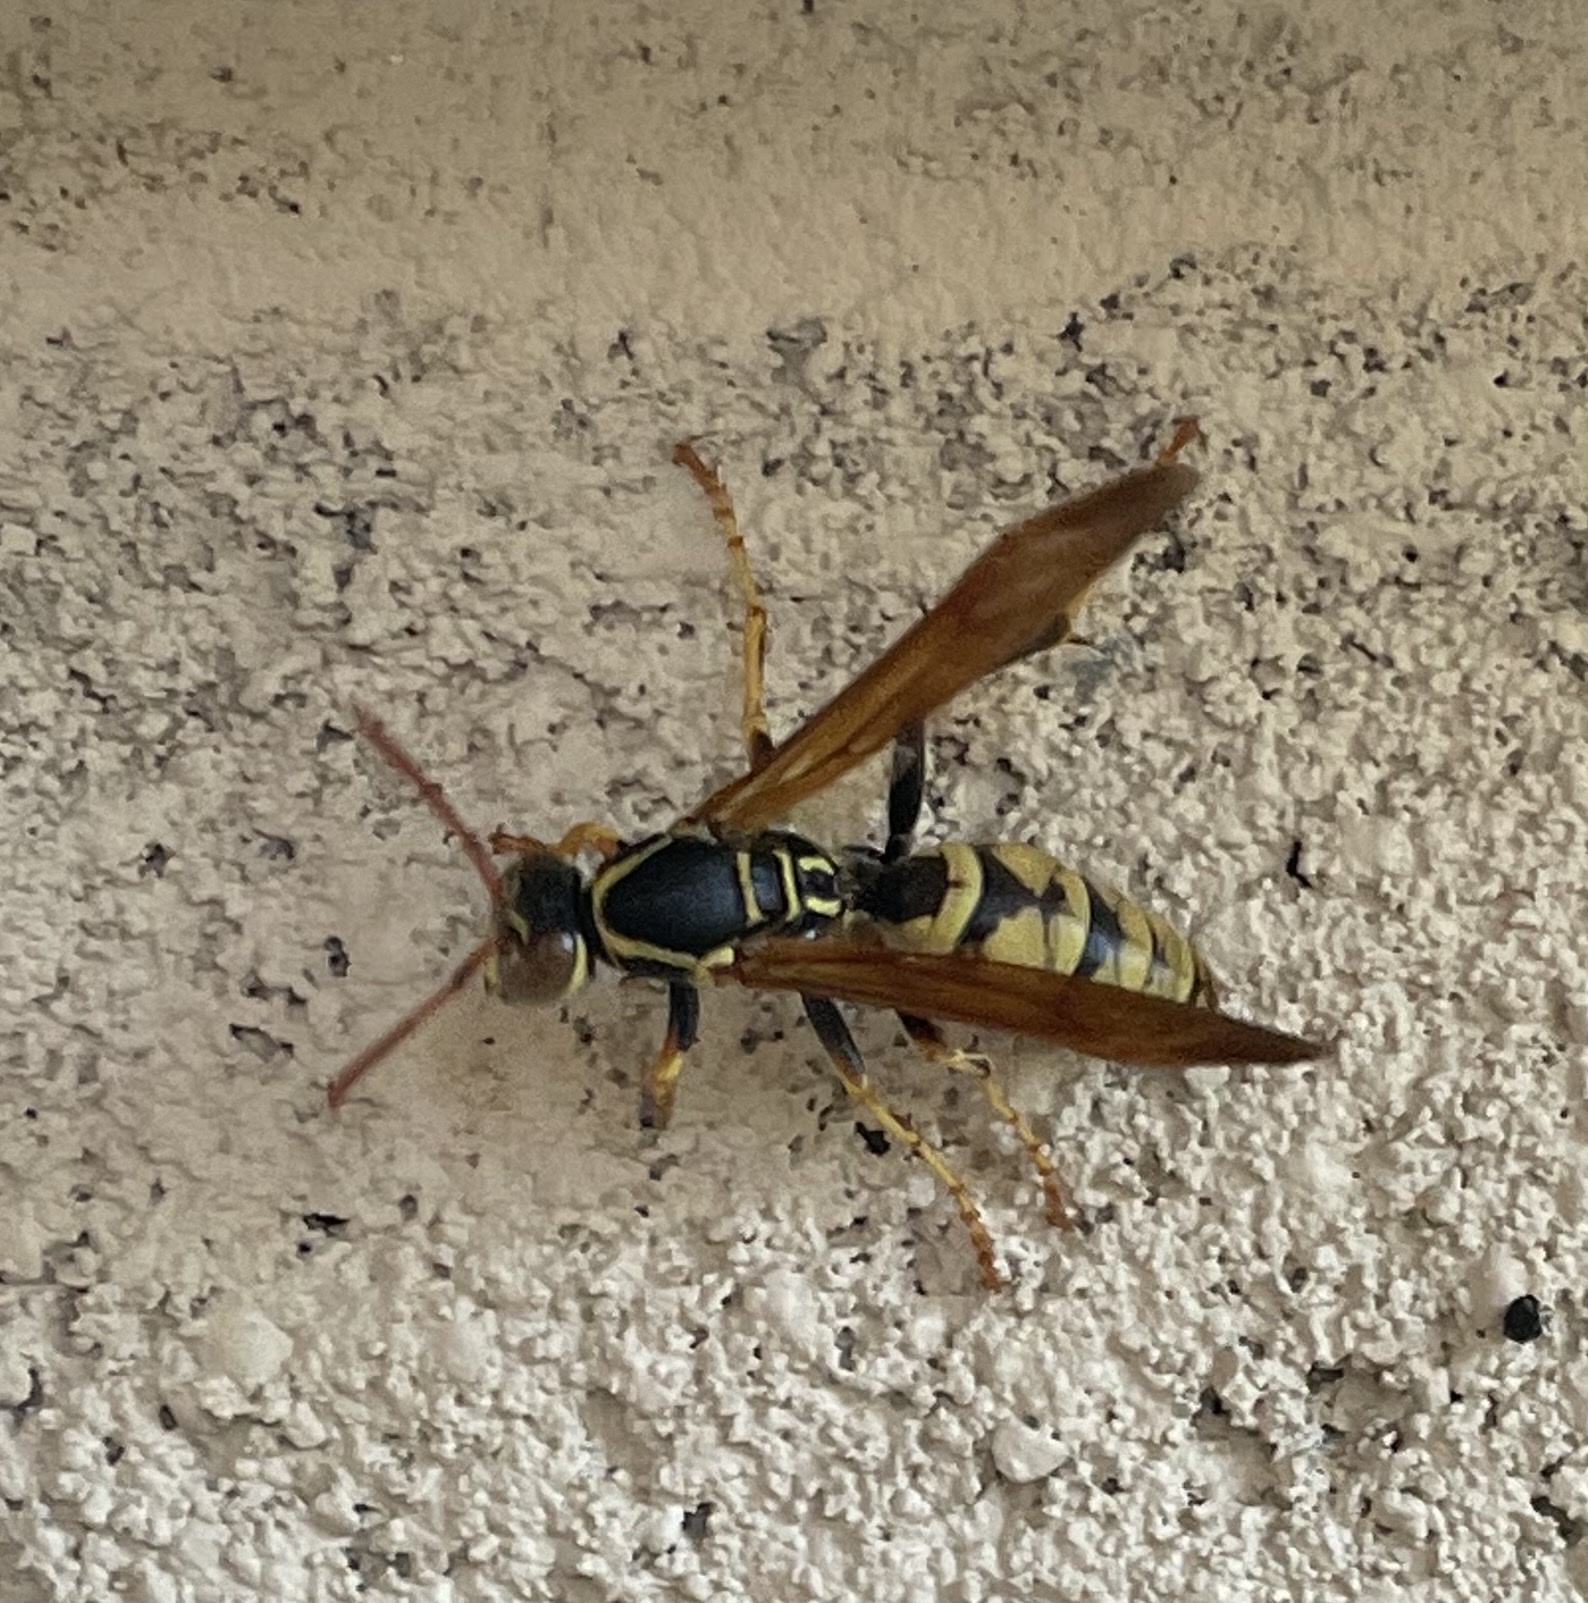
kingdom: Animalia
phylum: Arthropoda
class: Insecta
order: Hymenoptera
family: Eumenidae
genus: Polistes
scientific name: Polistes aurifer
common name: Paper wasp
